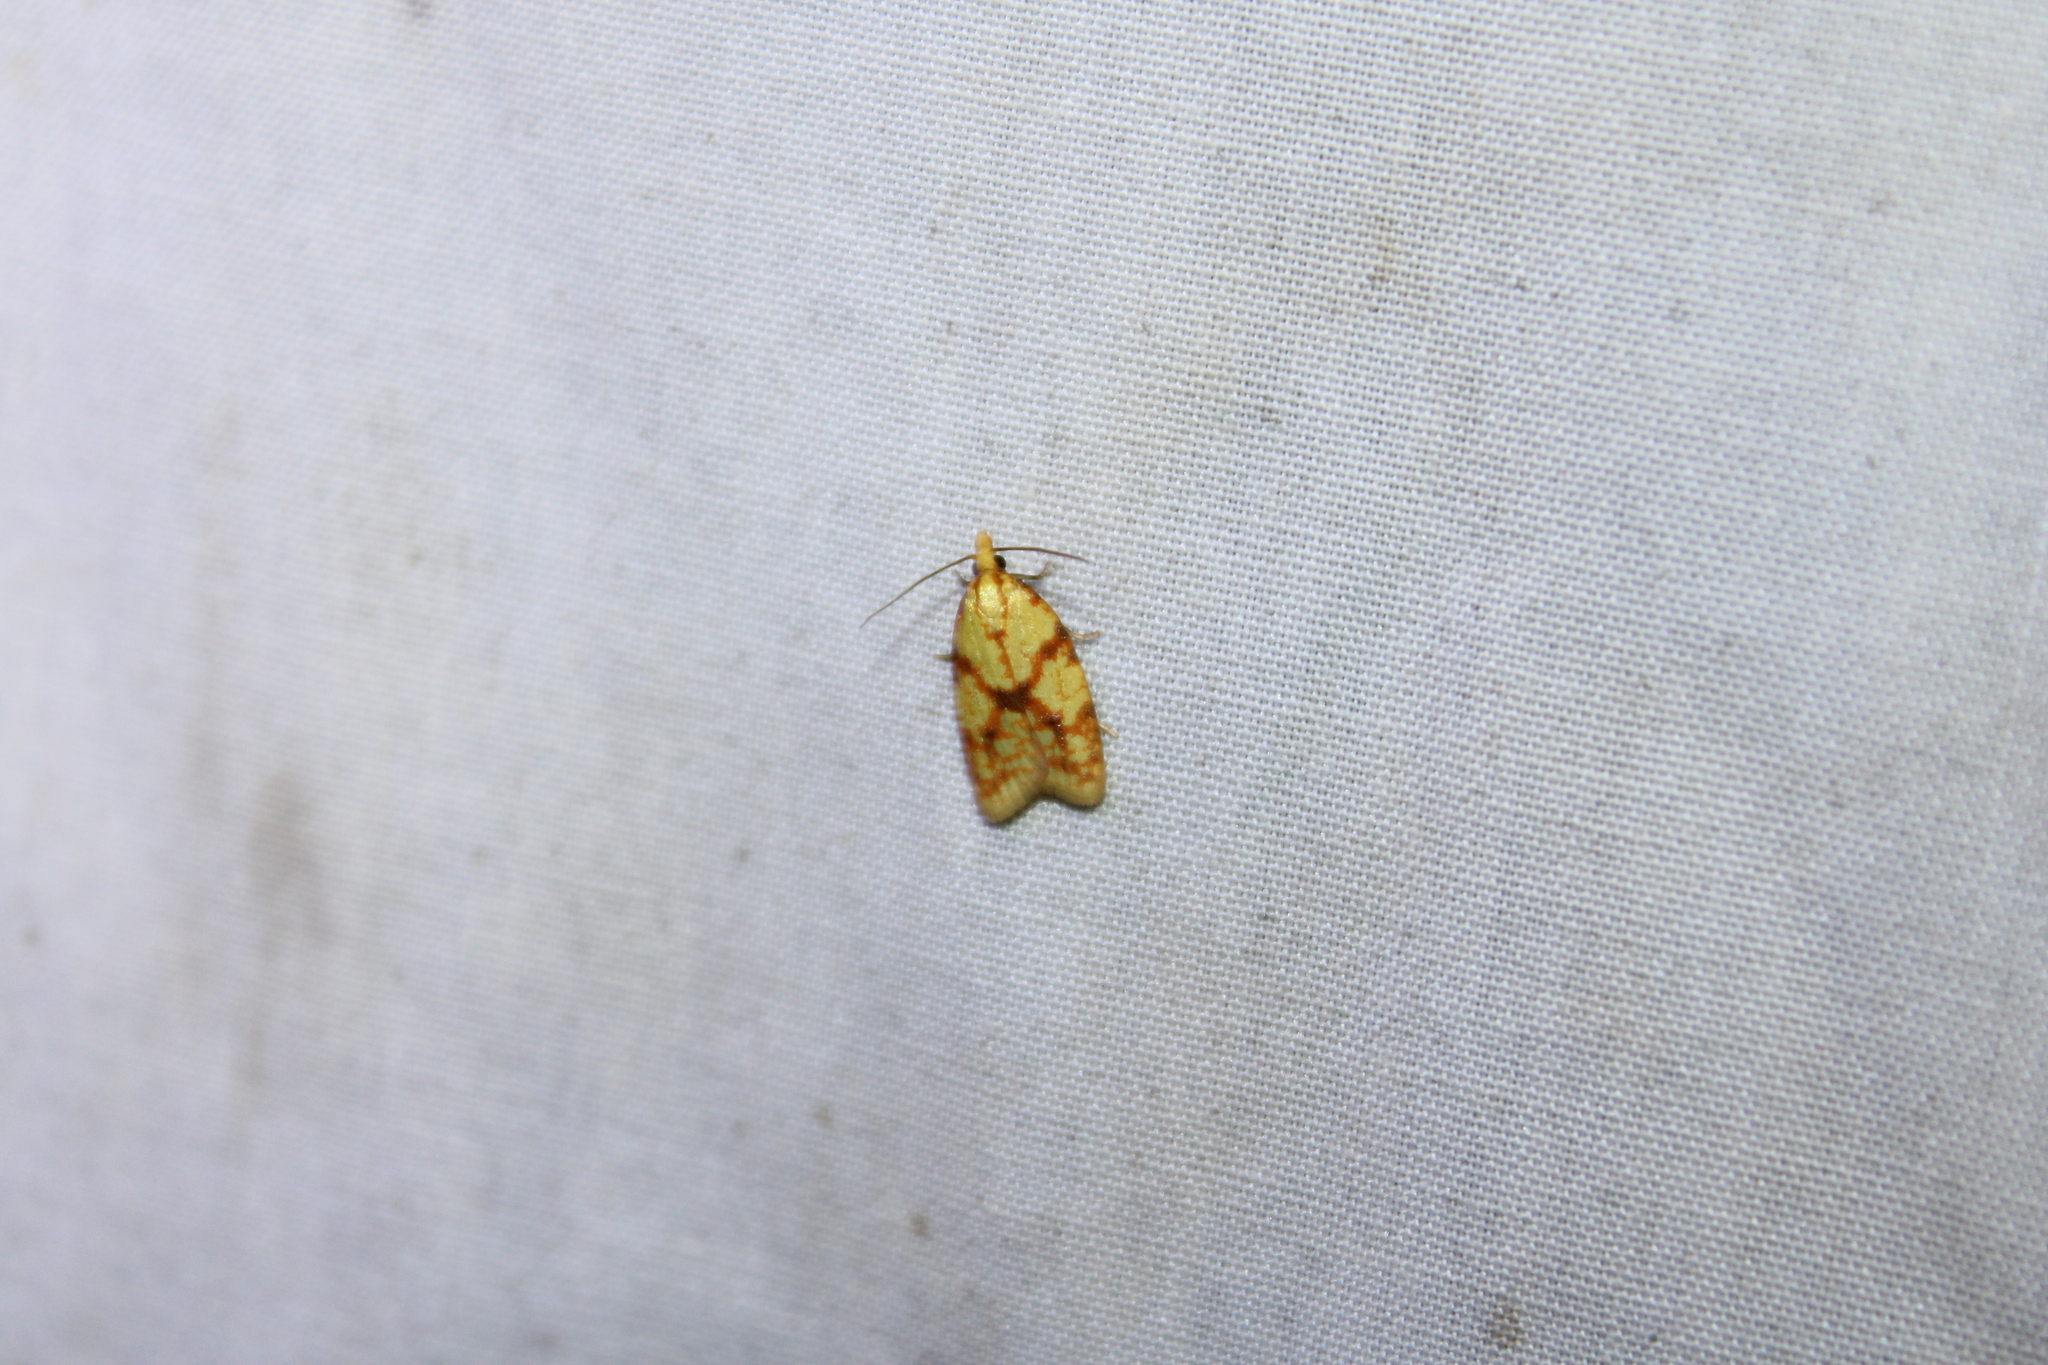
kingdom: Animalia
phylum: Arthropoda
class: Insecta
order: Lepidoptera
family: Tortricidae
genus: Sparganothis
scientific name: Sparganothis sulfureana
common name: Sparganothis fruitworm moth
